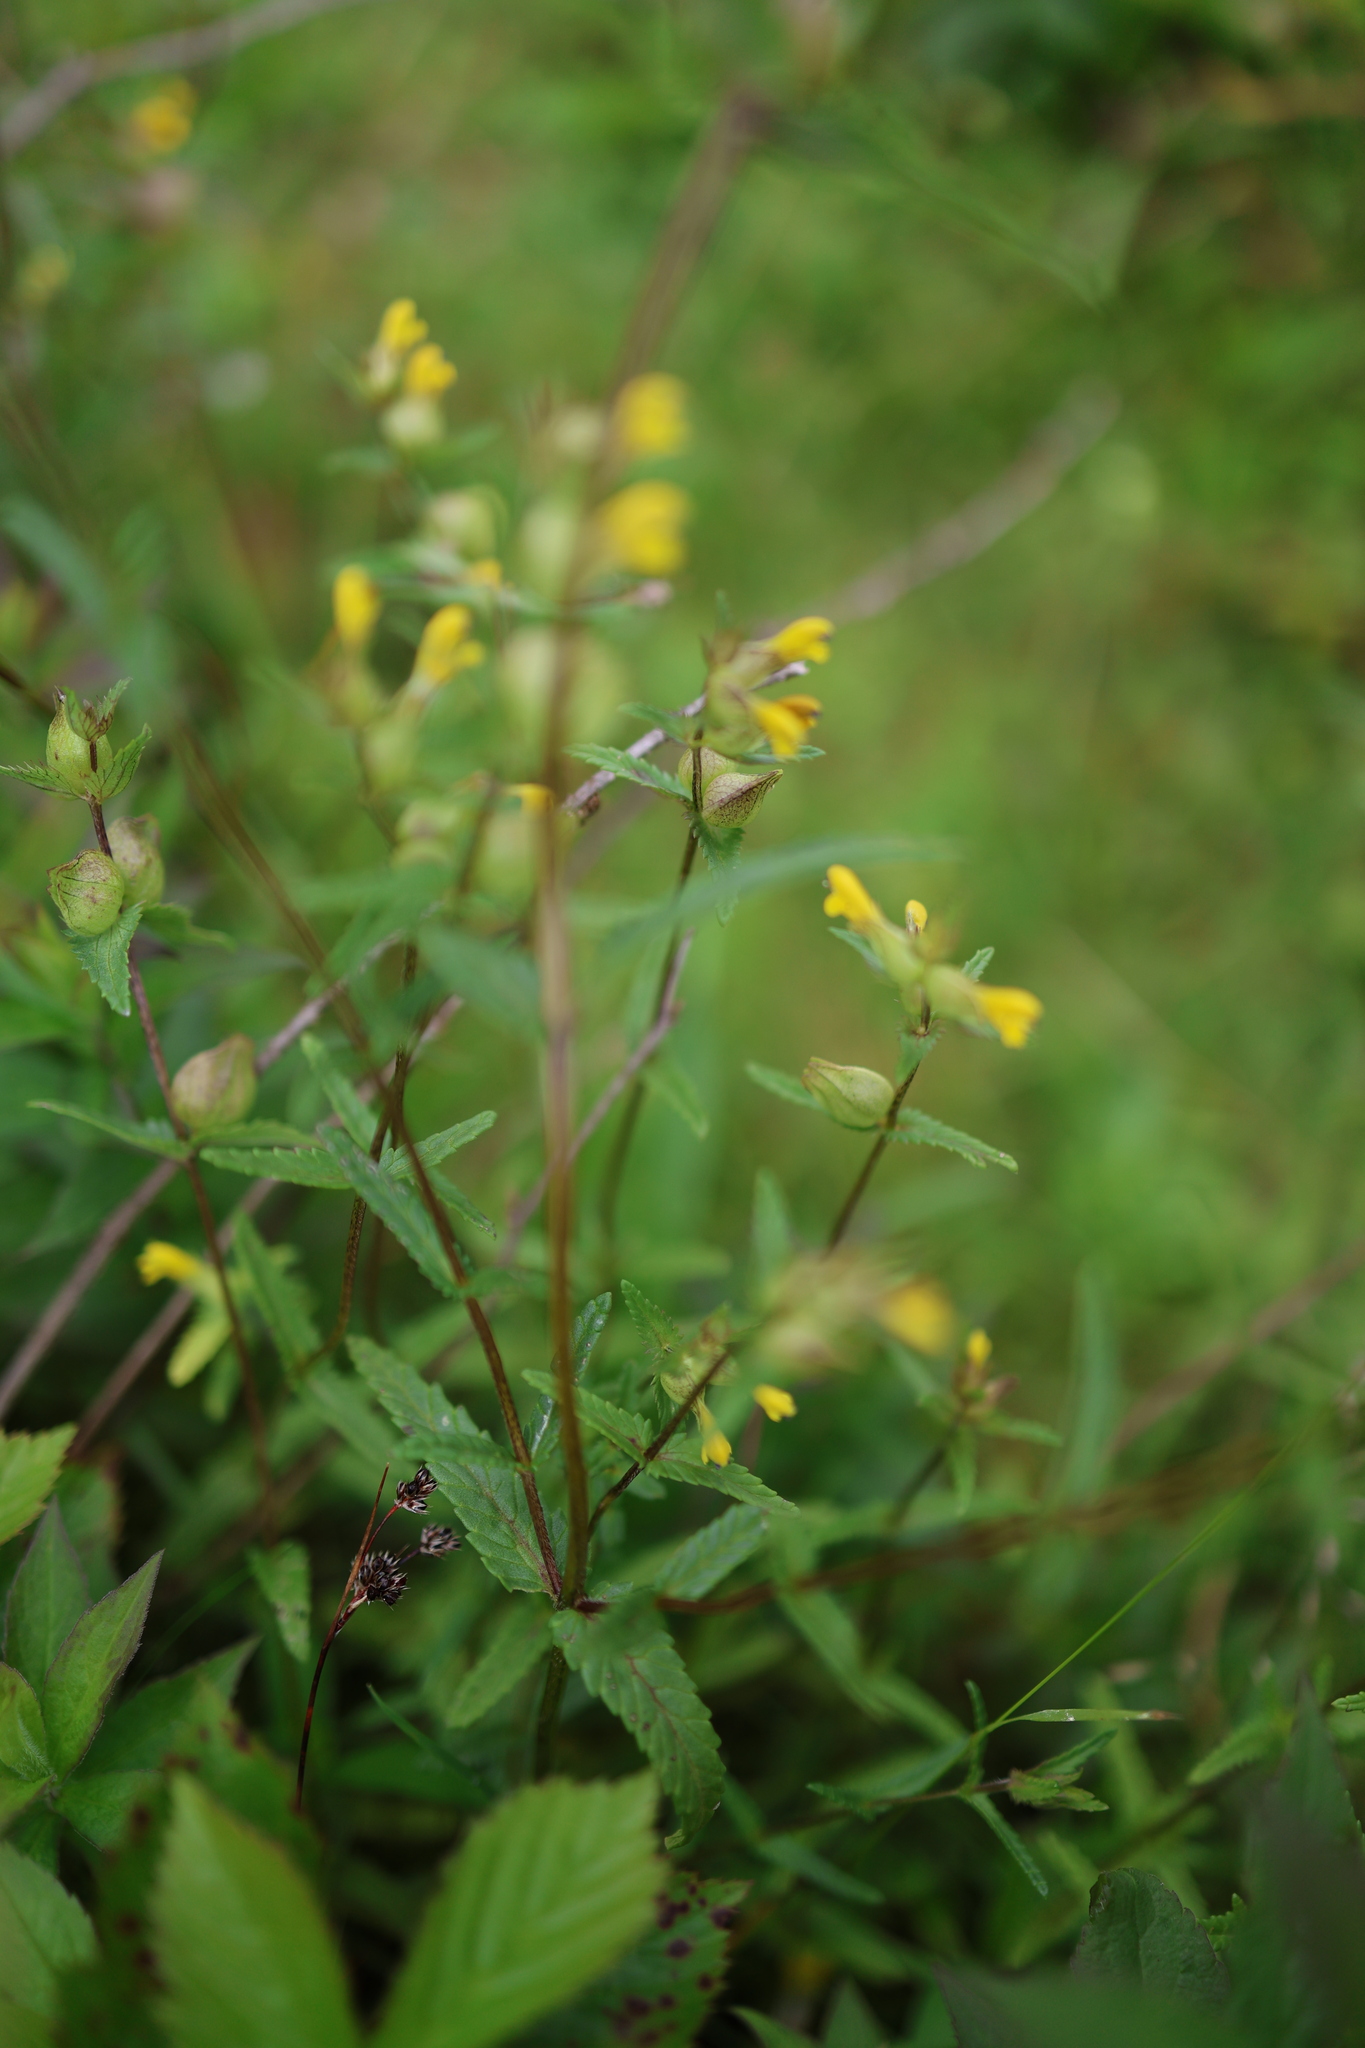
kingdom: Plantae
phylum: Tracheophyta
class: Magnoliopsida
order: Lamiales
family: Orobanchaceae
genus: Rhinanthus
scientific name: Rhinanthus minor
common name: Yellow-rattle
